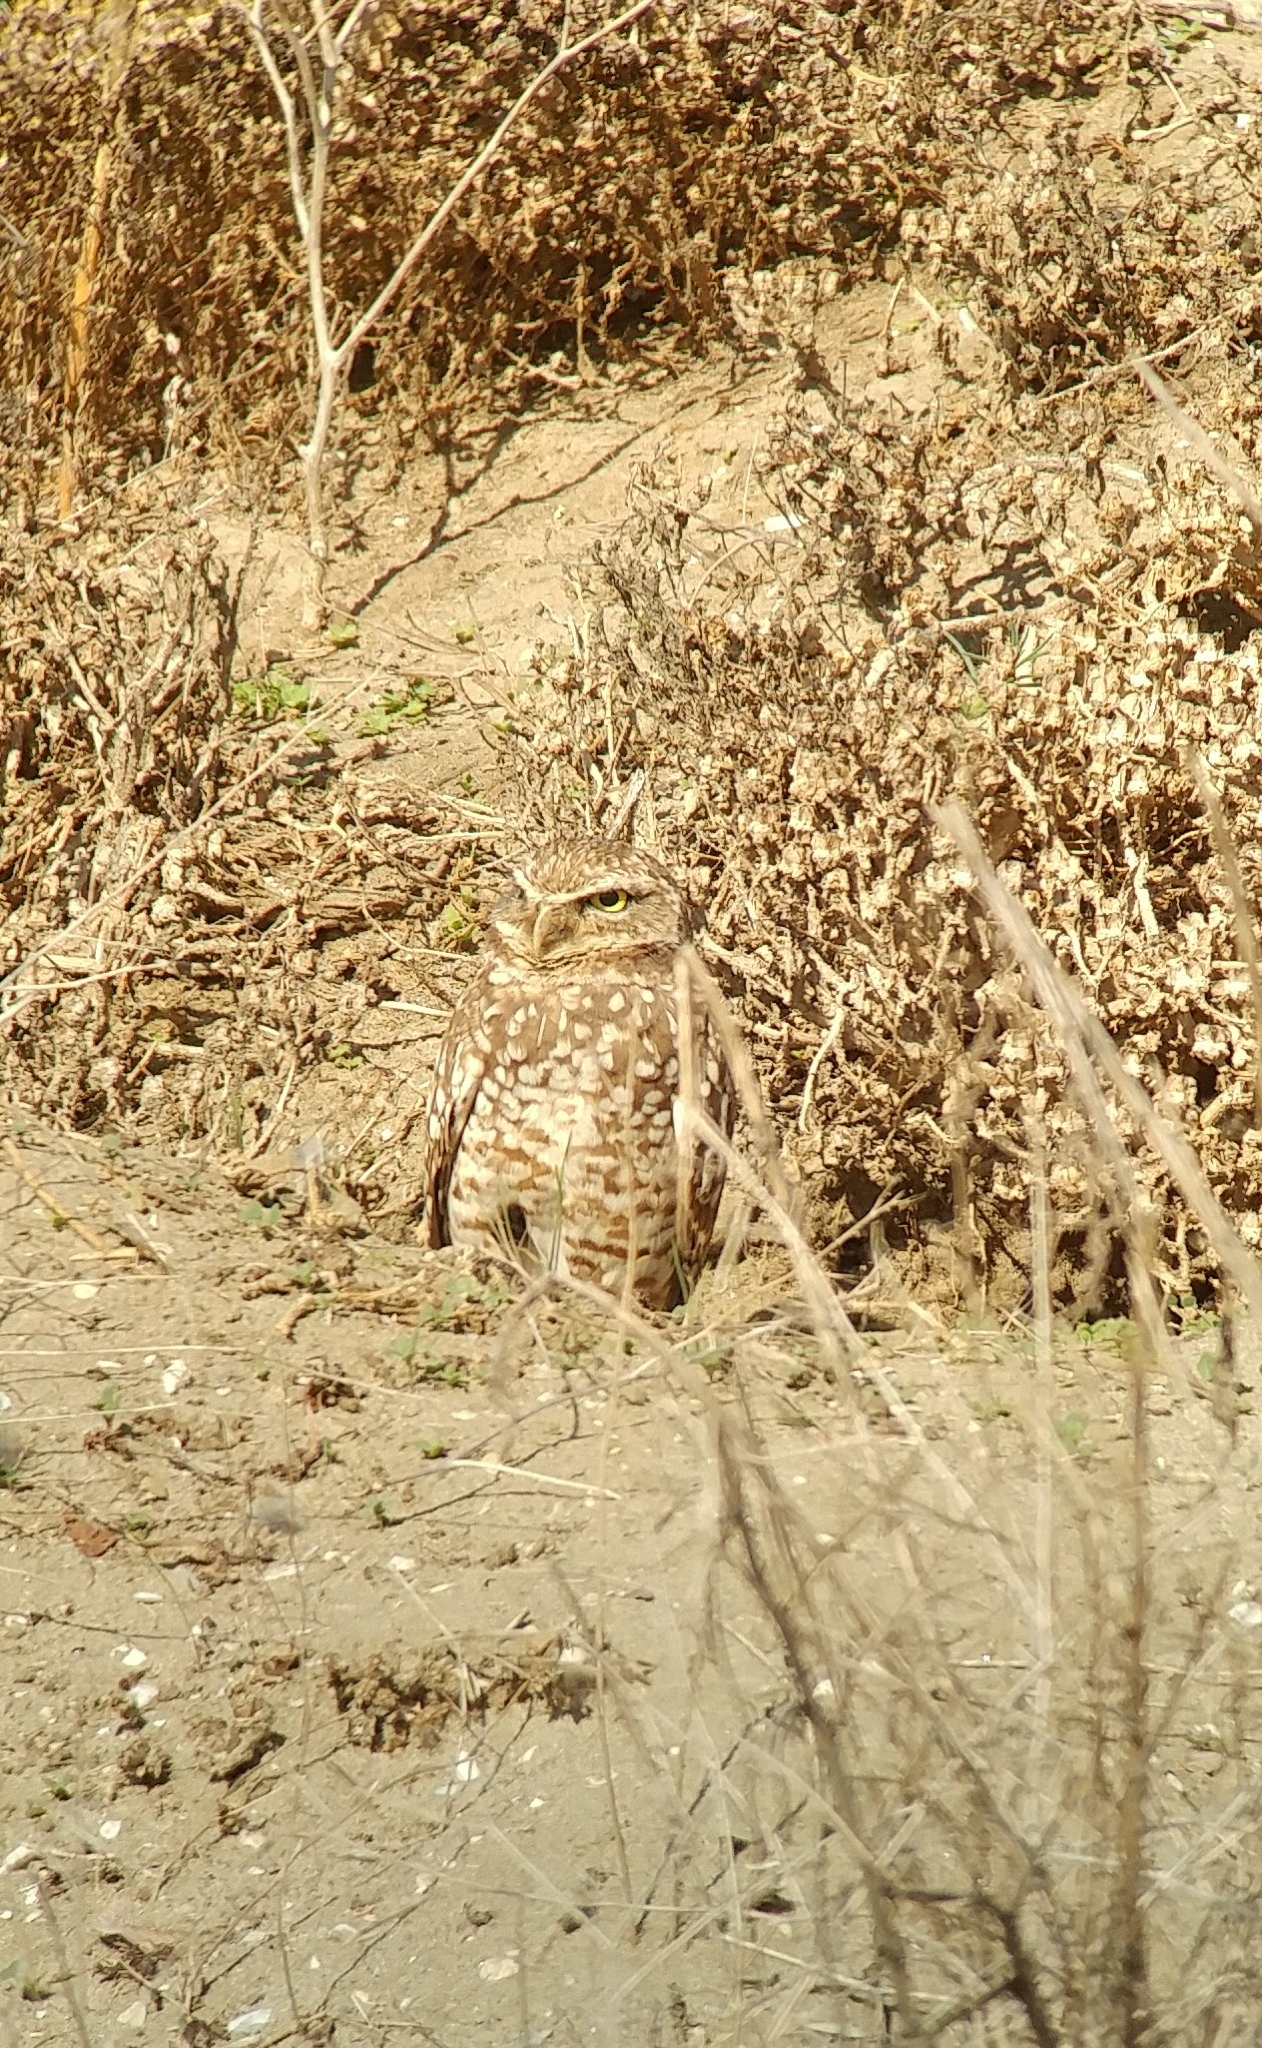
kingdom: Animalia
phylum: Chordata
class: Aves
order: Strigiformes
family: Strigidae
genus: Athene
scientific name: Athene cunicularia
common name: Burrowing owl
